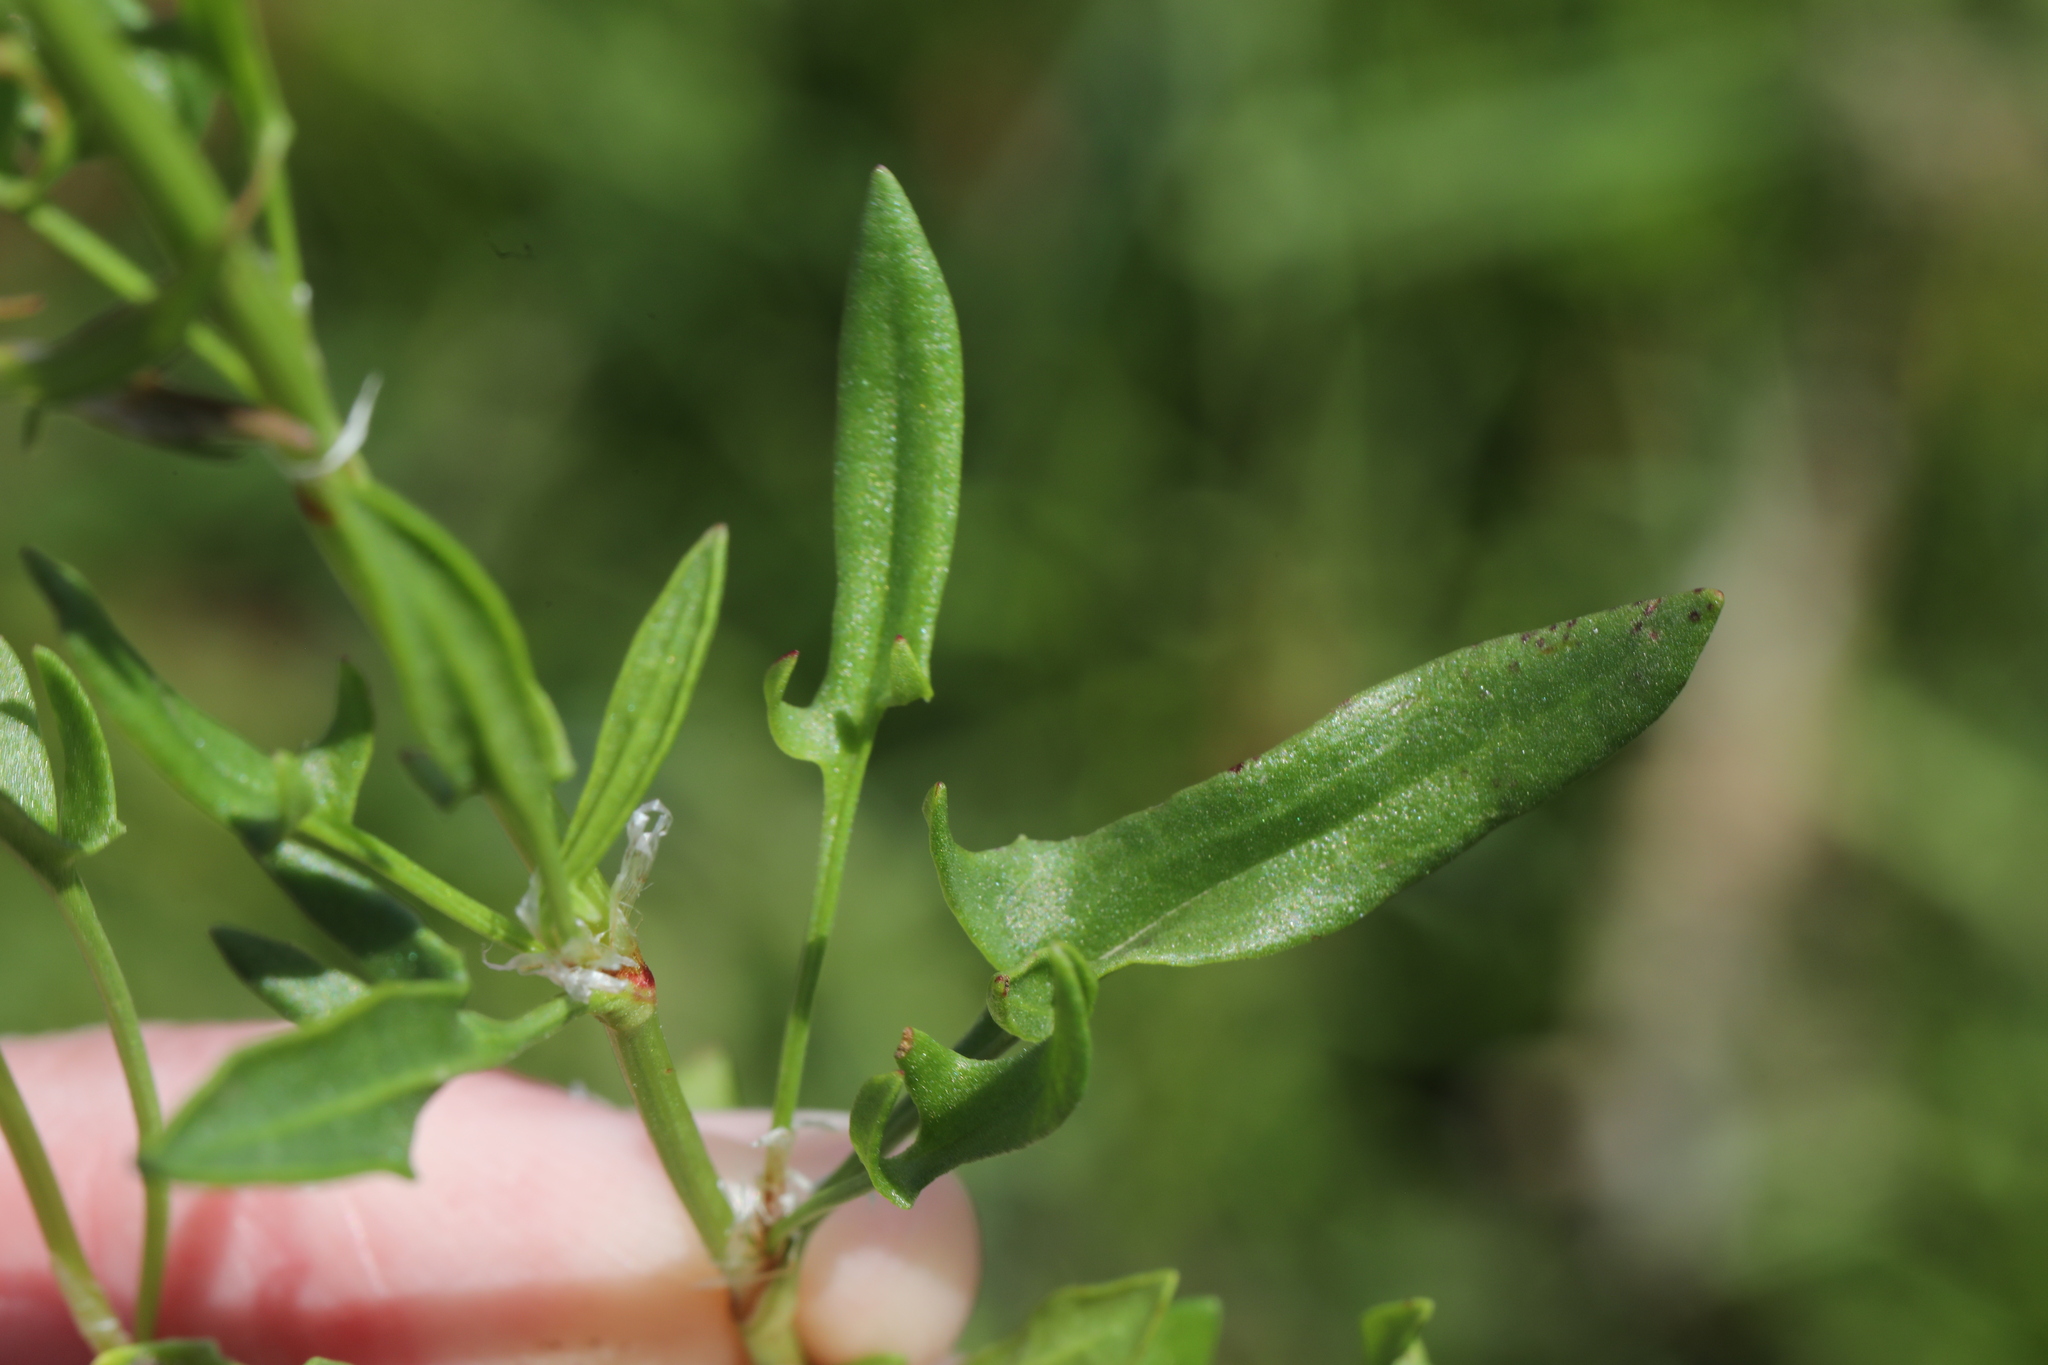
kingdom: Plantae
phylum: Tracheophyta
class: Magnoliopsida
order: Caryophyllales
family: Polygonaceae
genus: Rumex
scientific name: Rumex acetosella
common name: Common sheep sorrel
